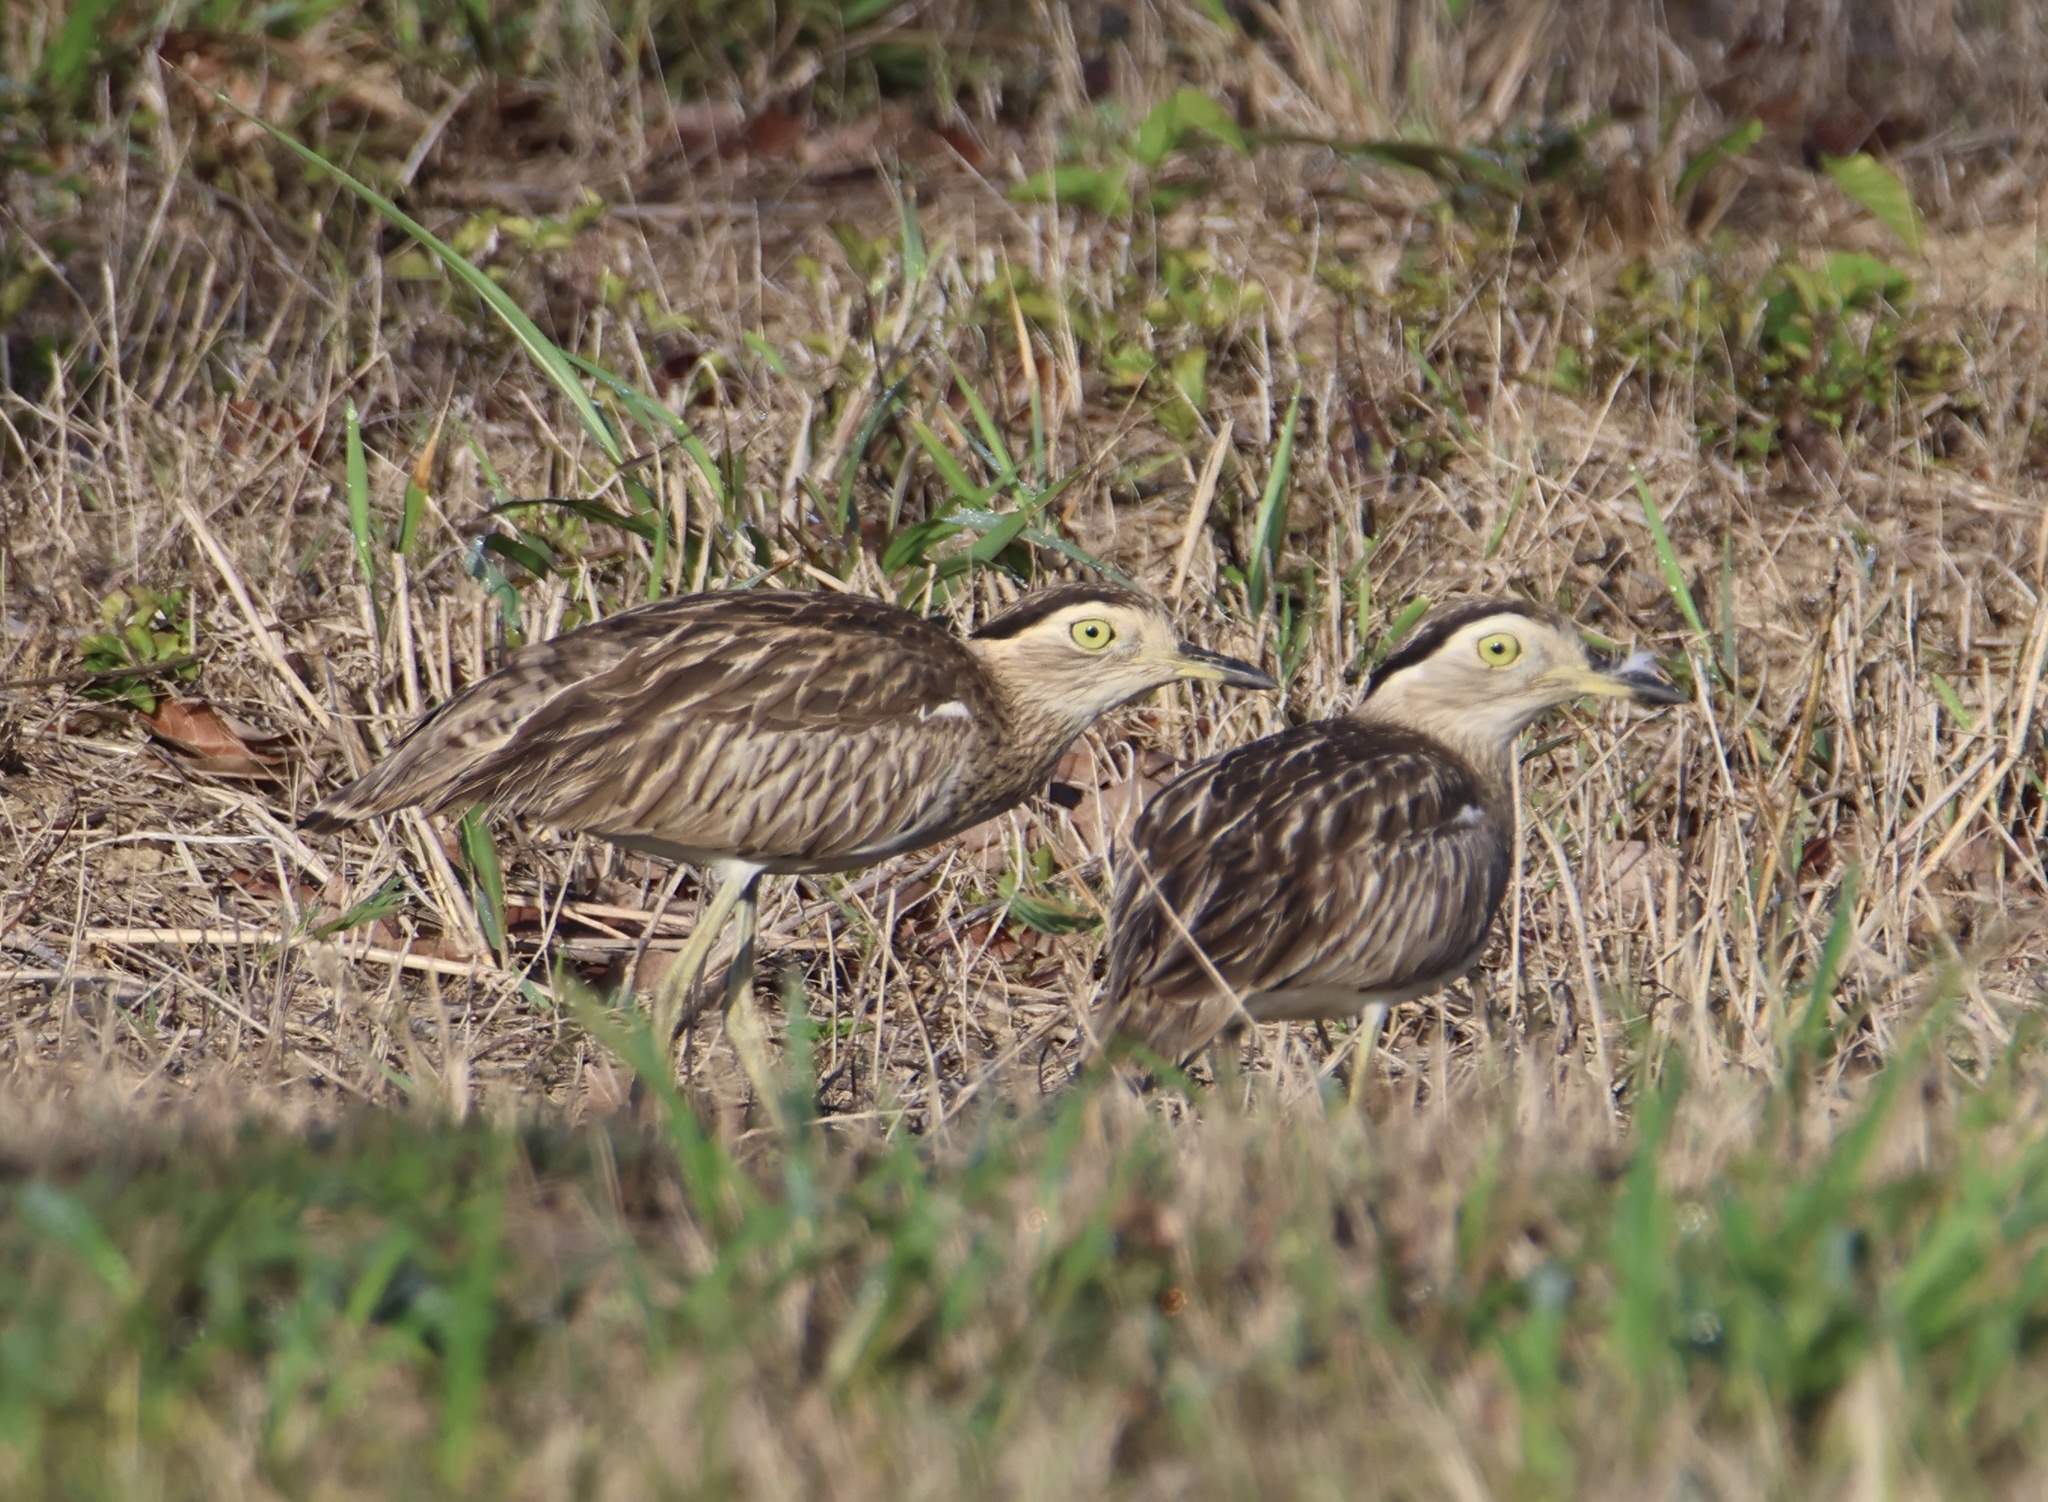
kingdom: Animalia
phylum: Chordata
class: Aves
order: Charadriiformes
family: Burhinidae
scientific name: Burhinidae
